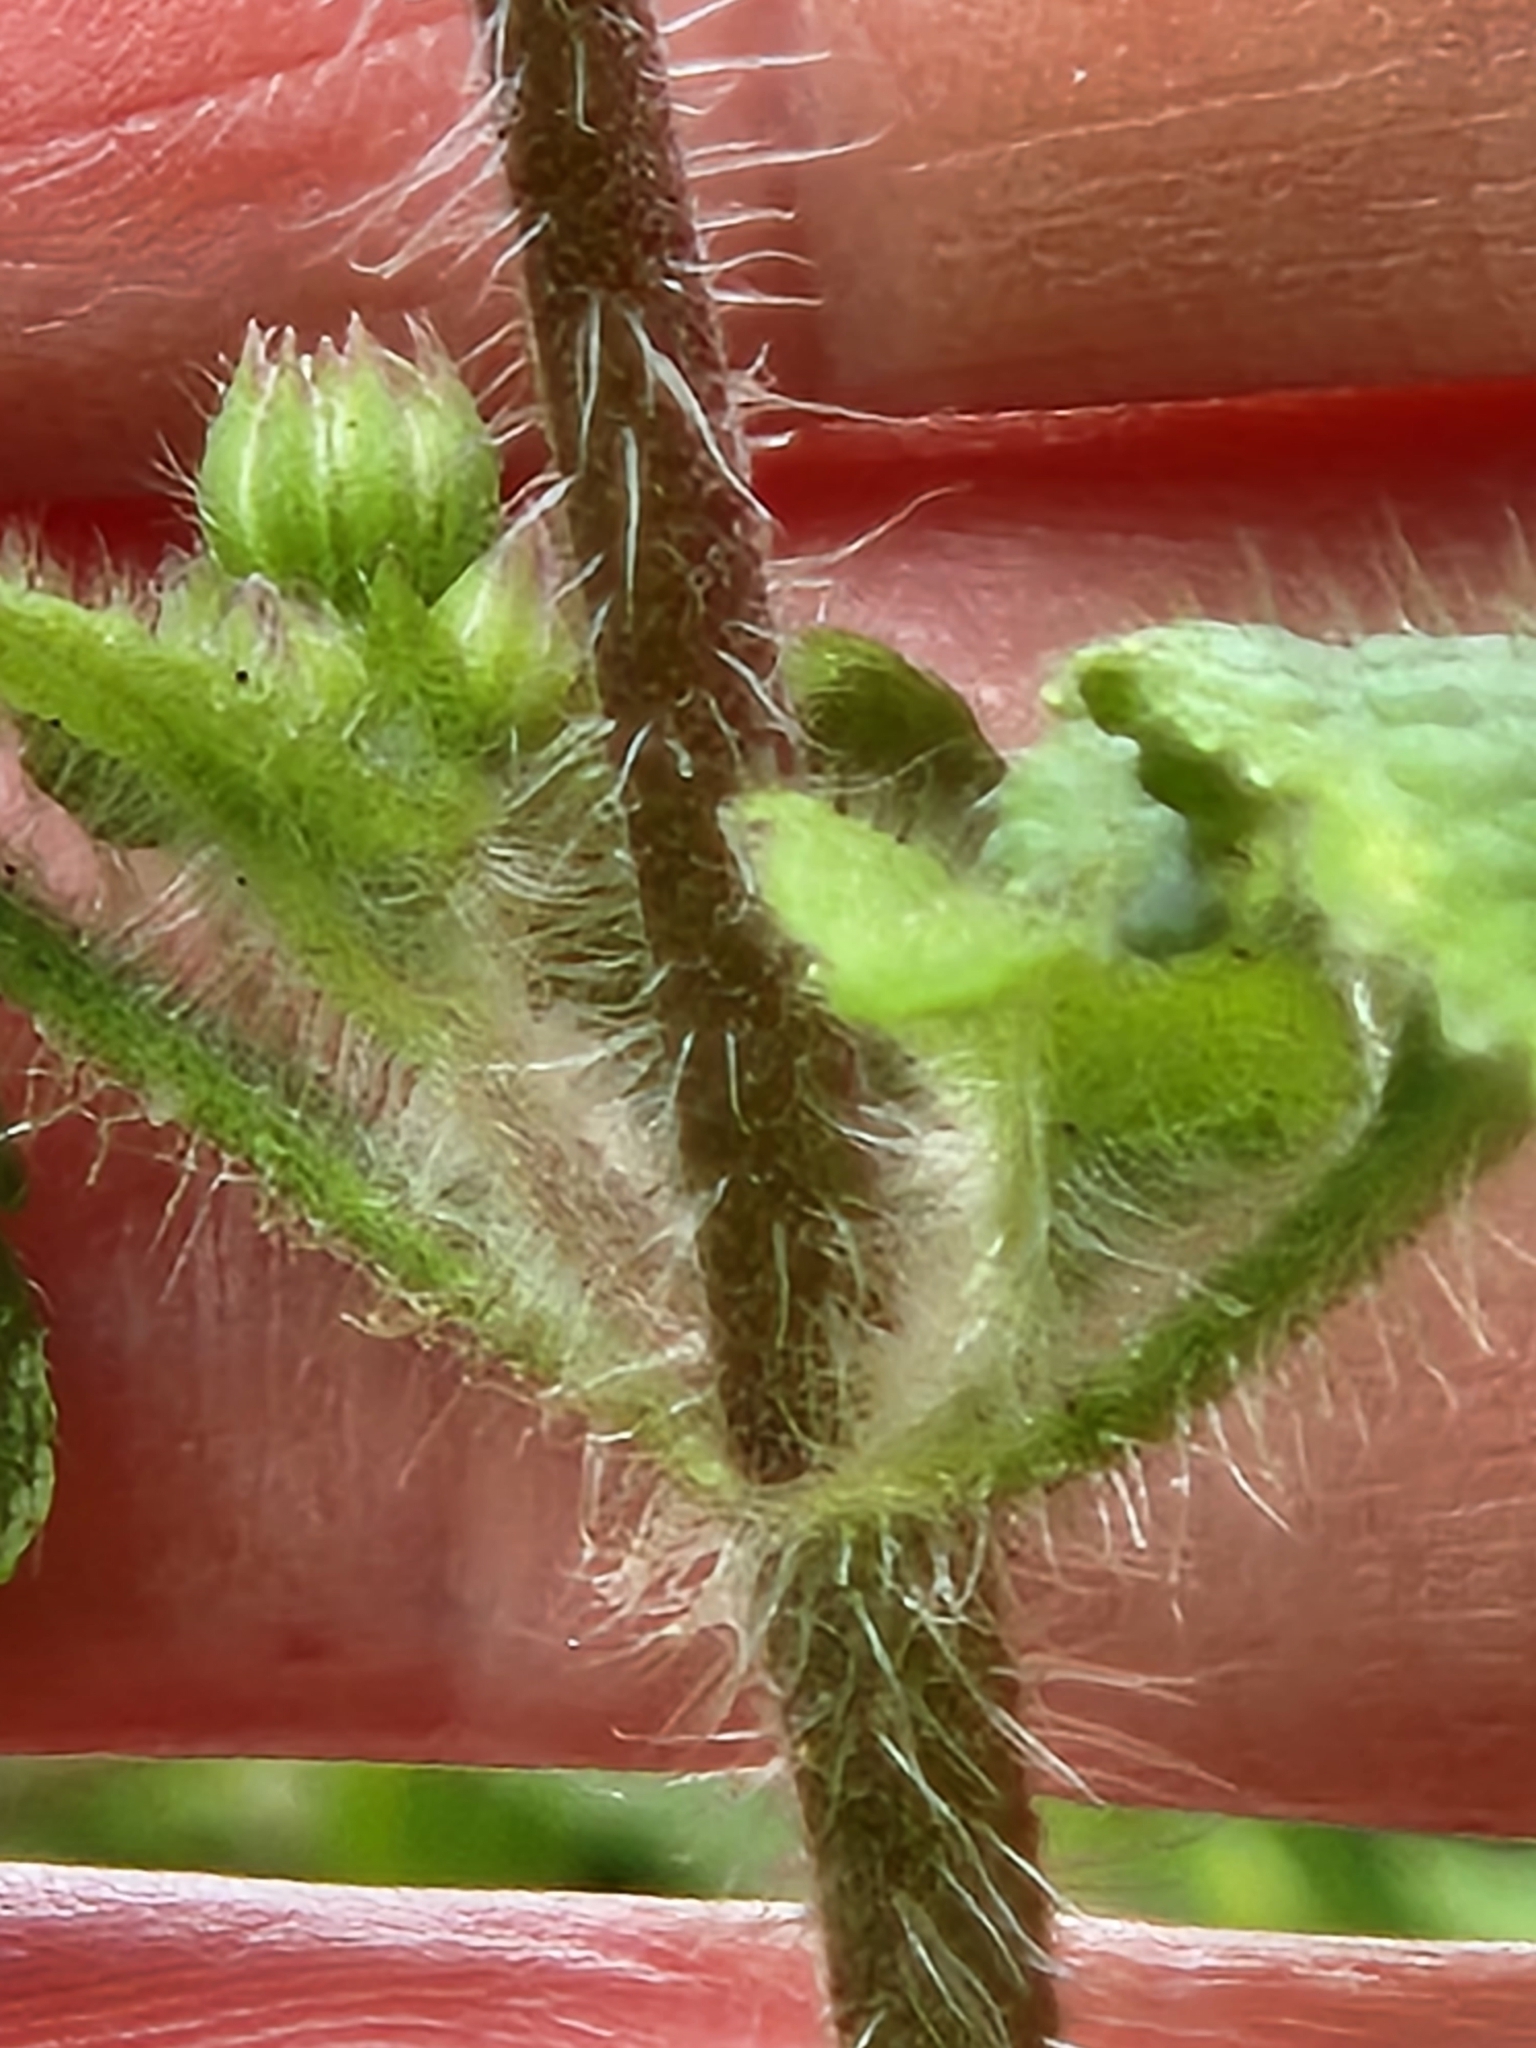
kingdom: Plantae
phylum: Tracheophyta
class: Magnoliopsida
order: Asterales
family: Asteraceae
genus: Ageratum
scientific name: Ageratum conyzoides
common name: Tropical whiteweed
